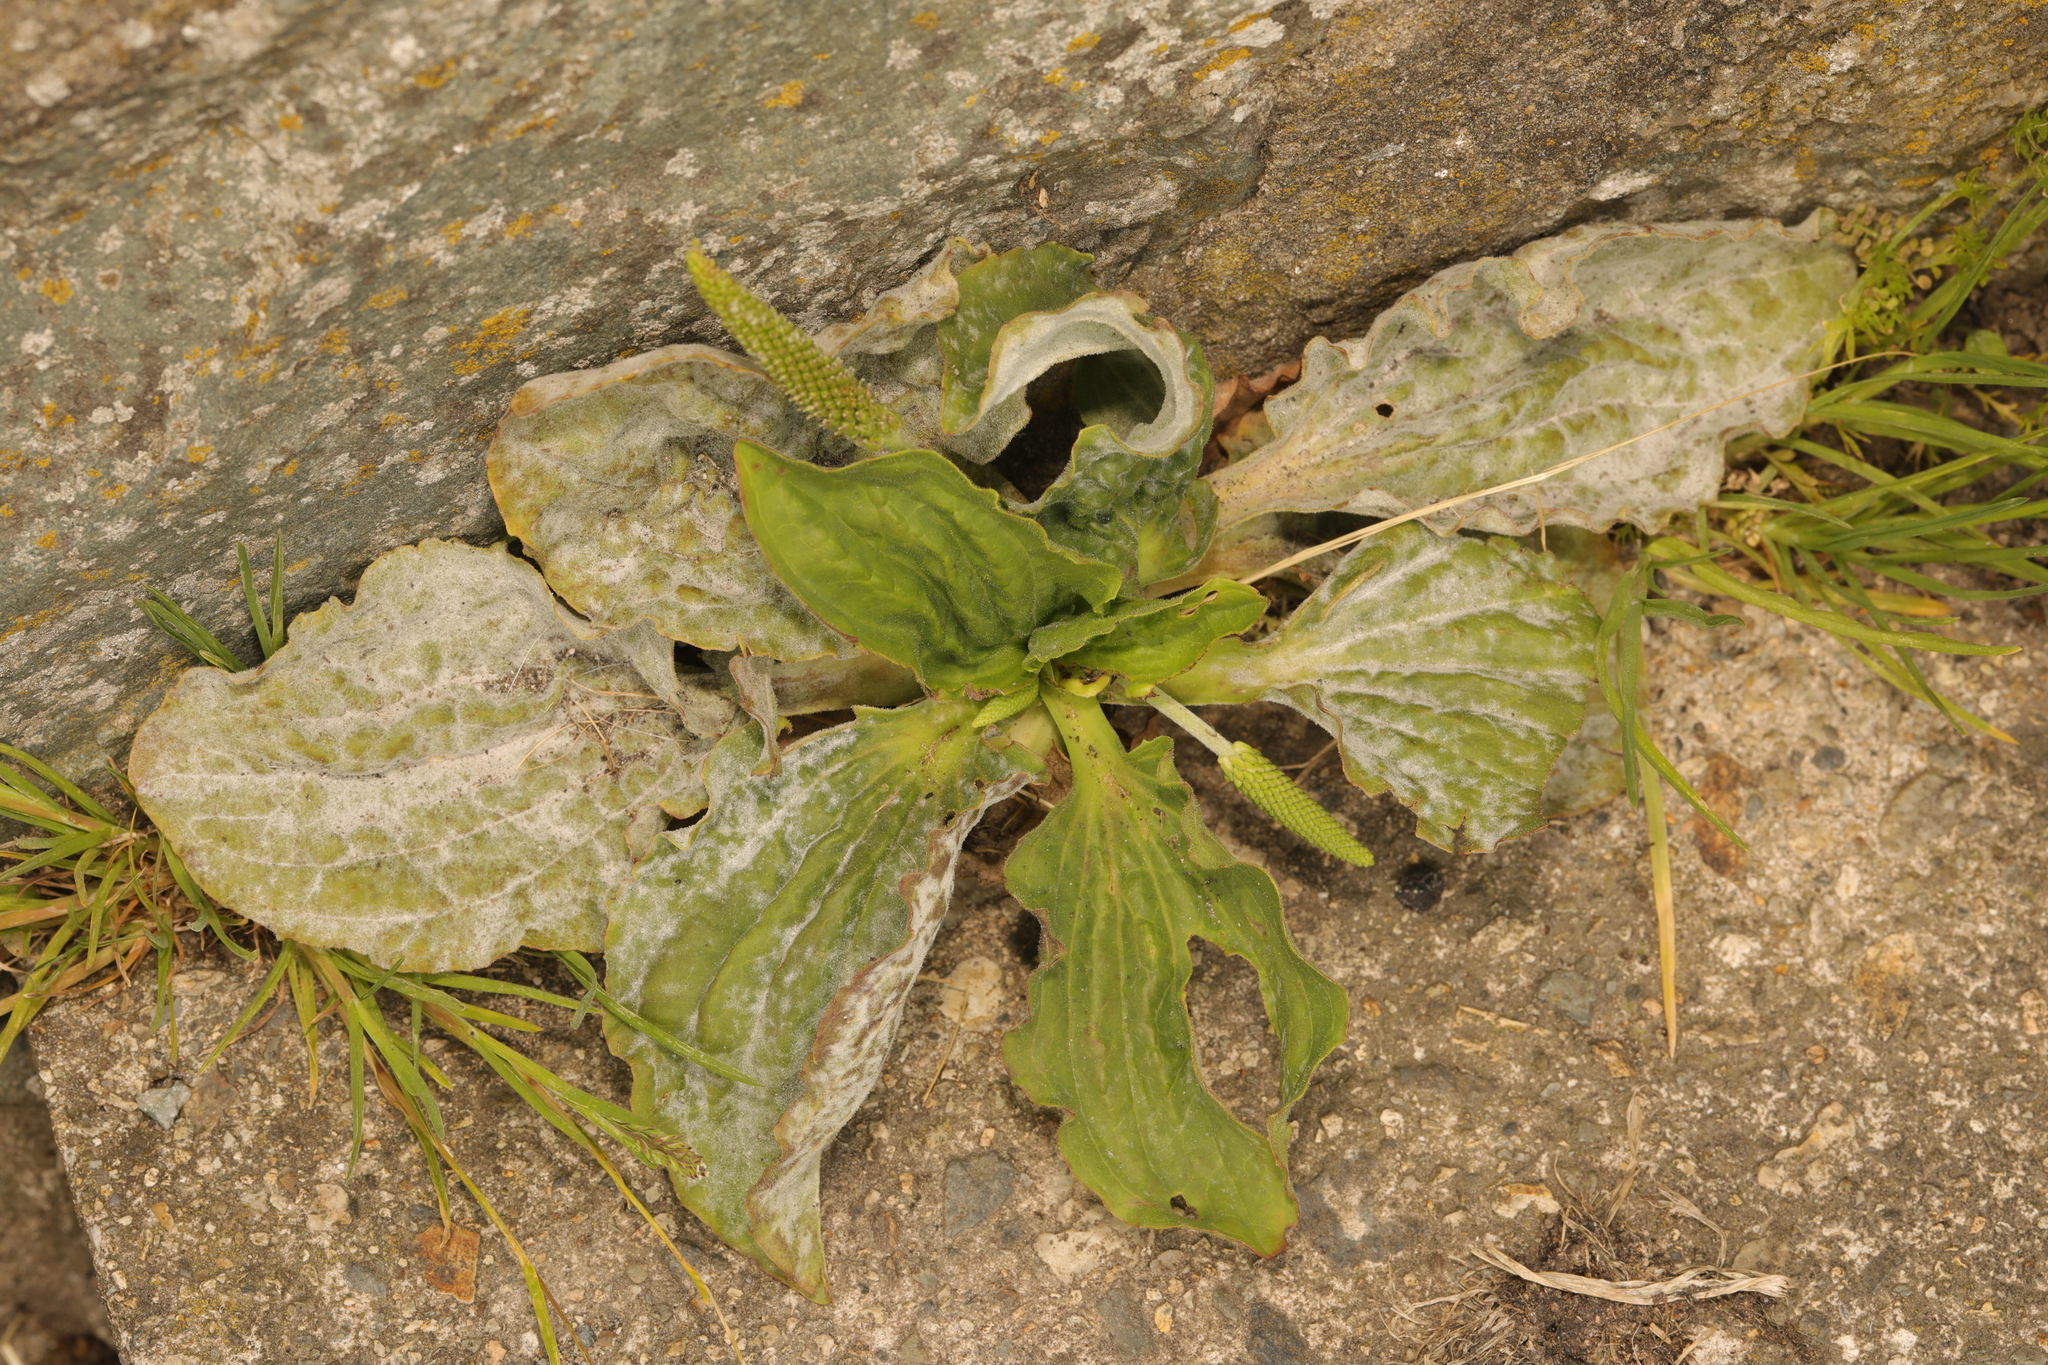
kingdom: Plantae
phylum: Tracheophyta
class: Magnoliopsida
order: Lamiales
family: Plantaginaceae
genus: Plantago
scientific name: Plantago major
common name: Common plantain
